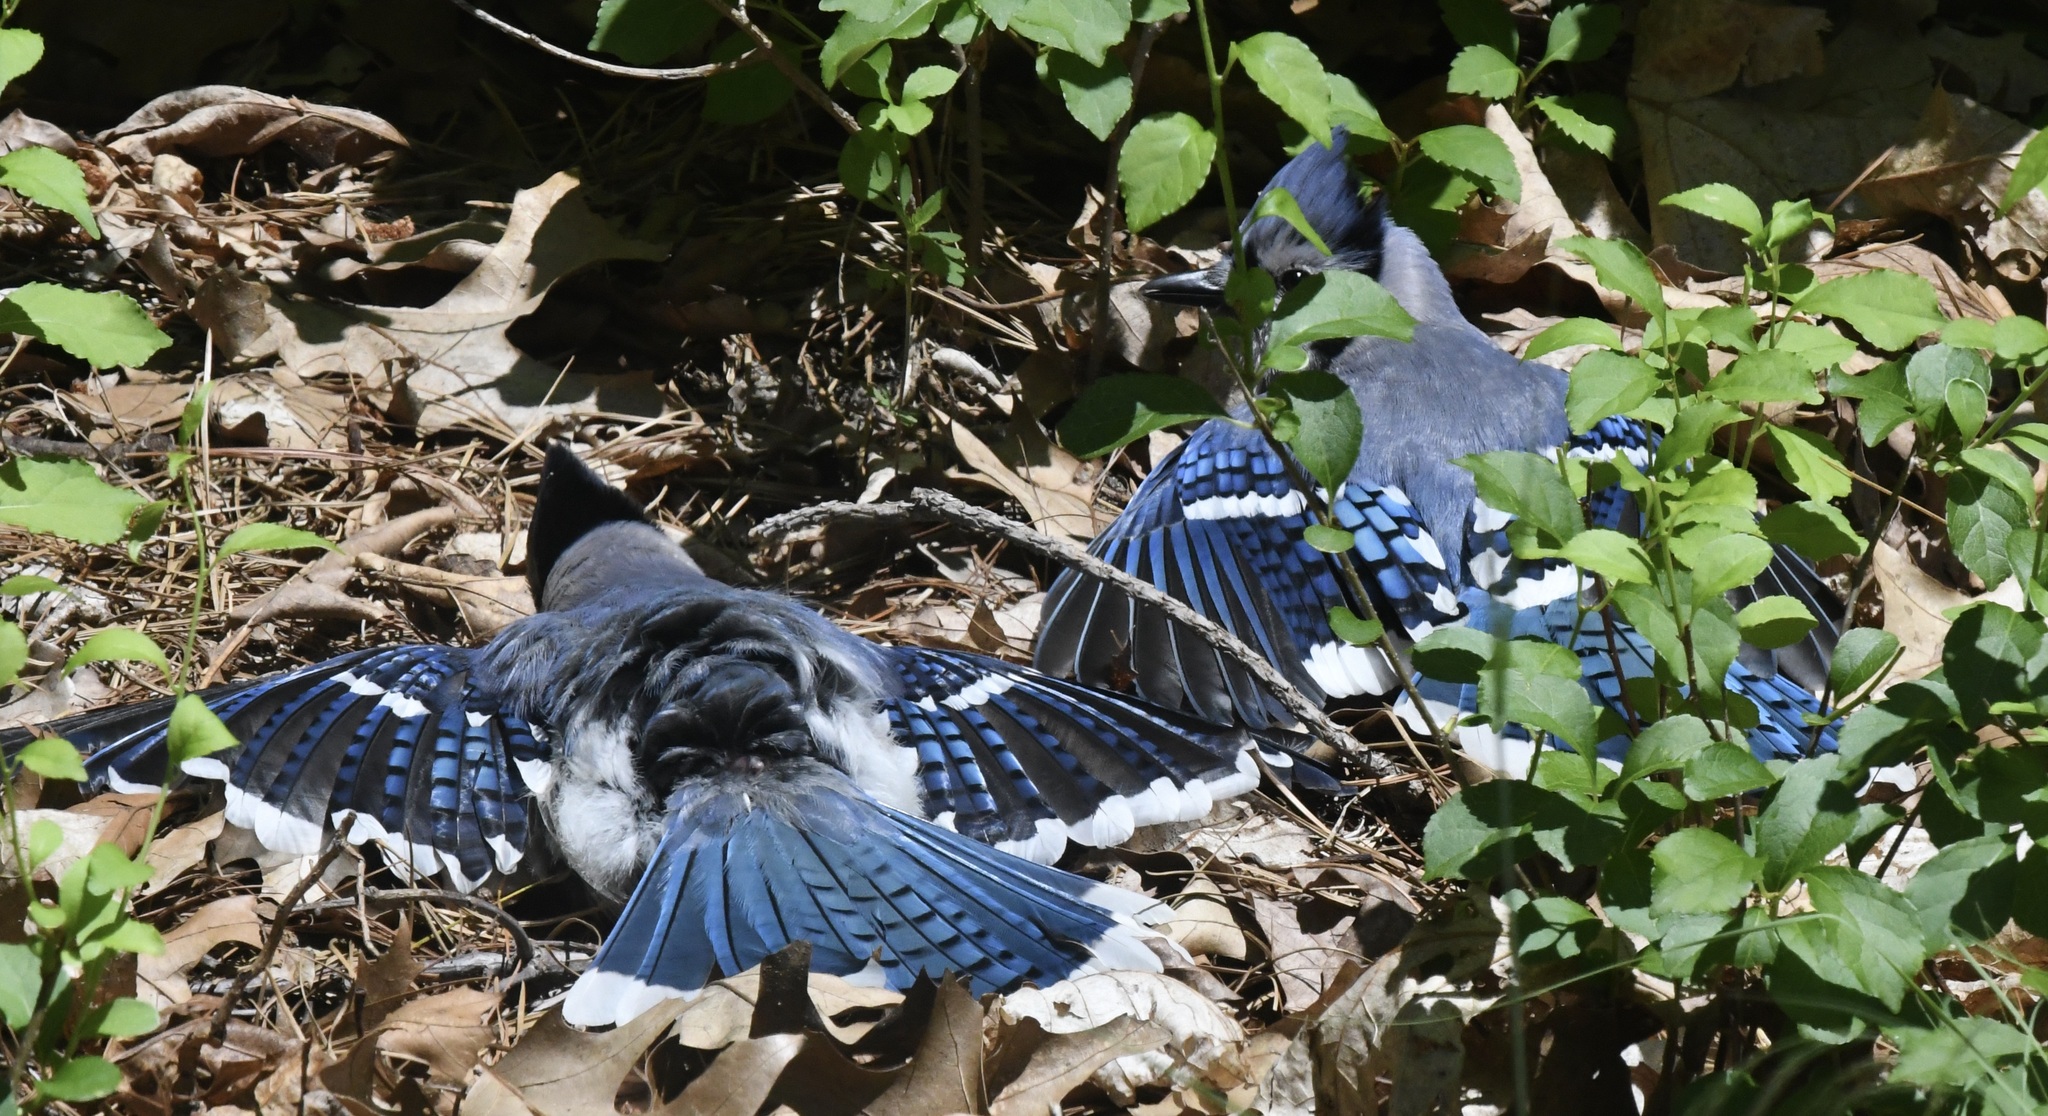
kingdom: Animalia
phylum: Chordata
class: Aves
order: Passeriformes
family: Corvidae
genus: Cyanocitta
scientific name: Cyanocitta cristata
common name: Blue jay
